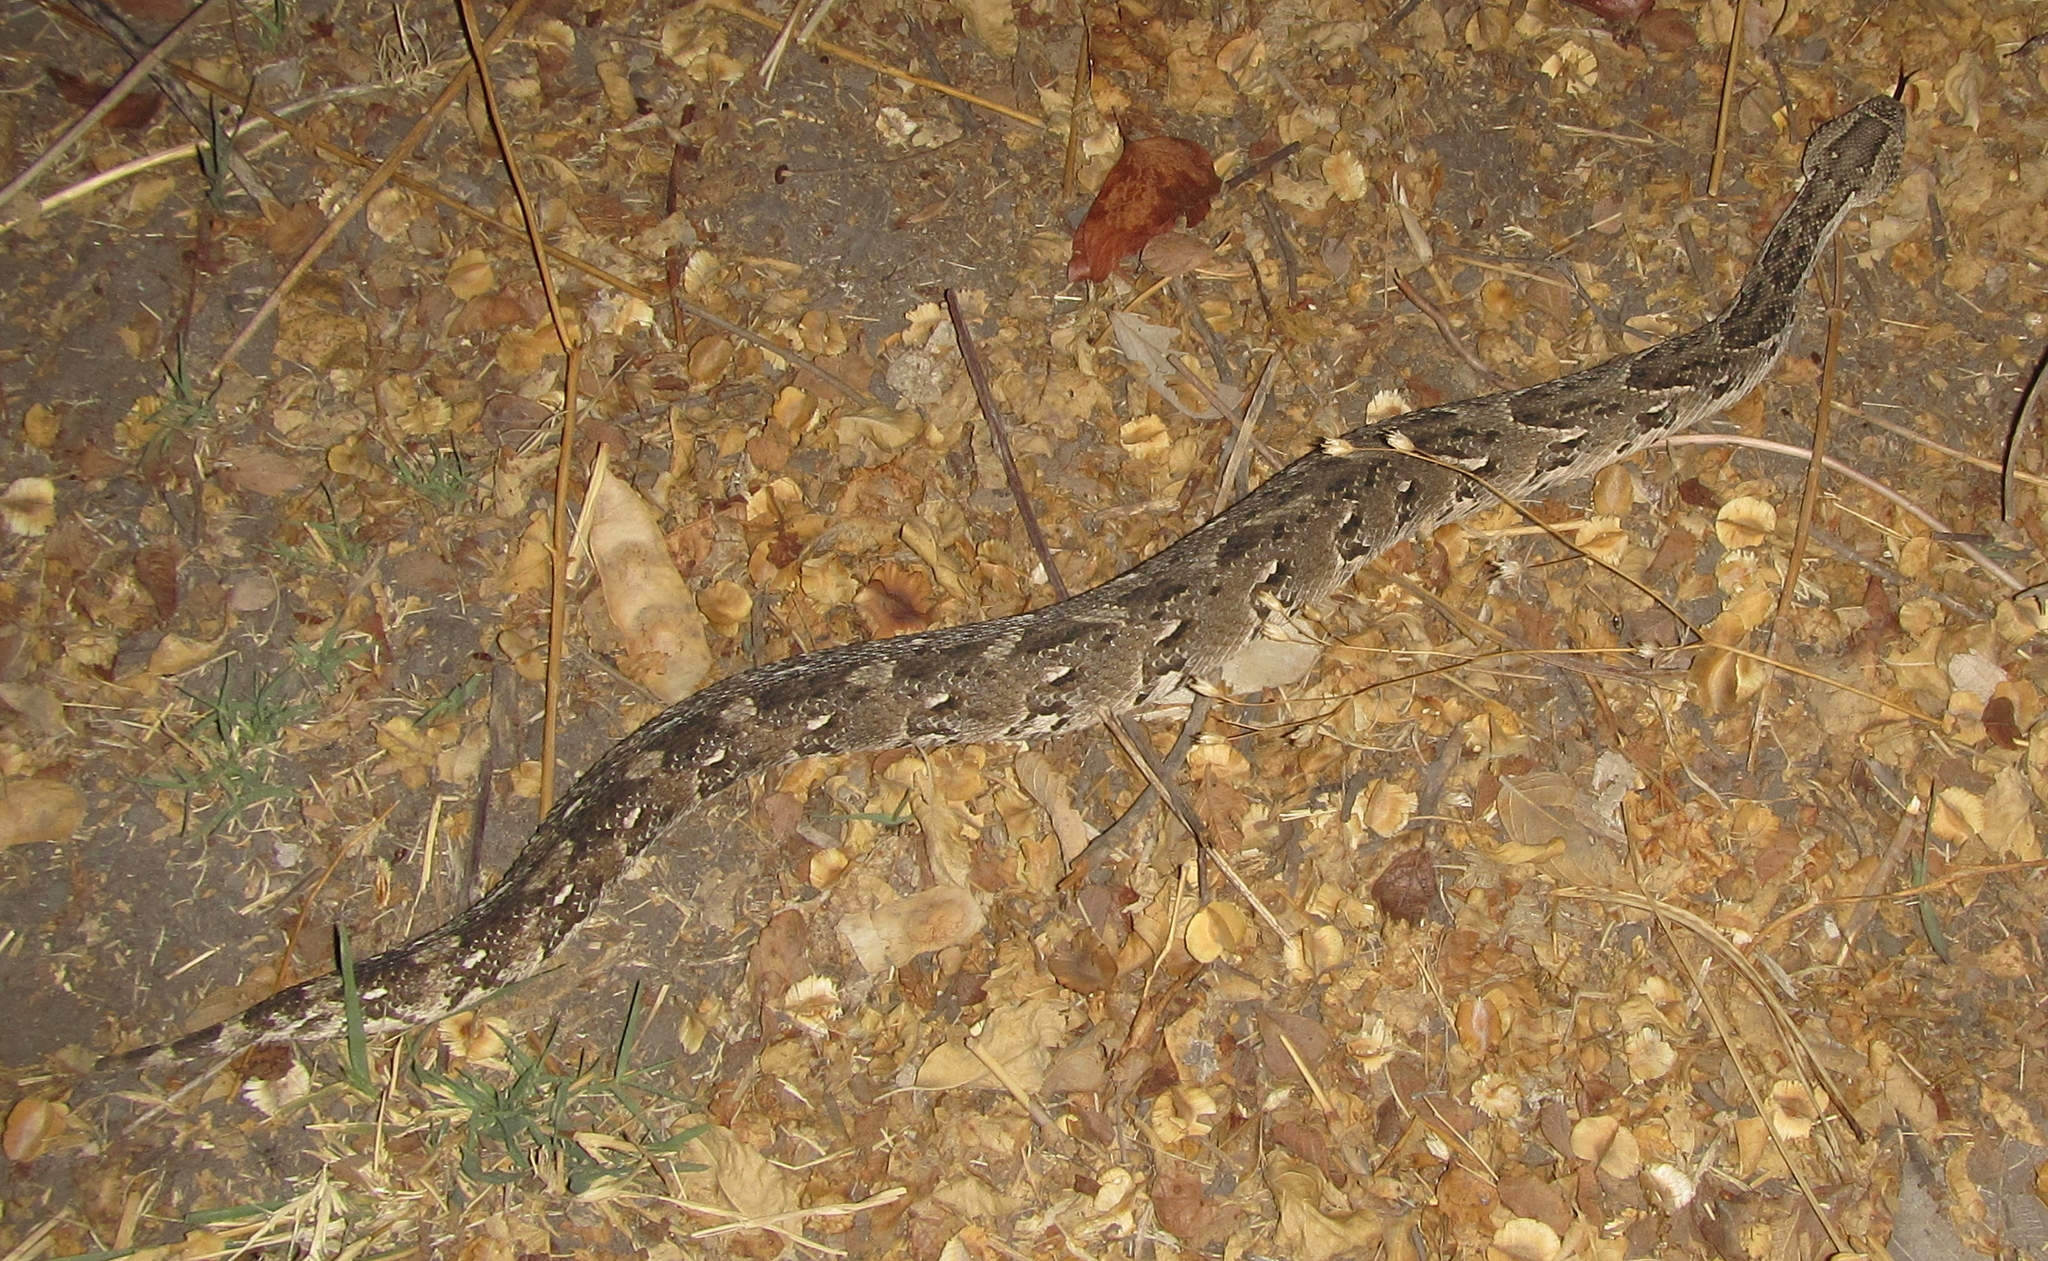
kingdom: Animalia
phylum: Chordata
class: Squamata
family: Viperidae
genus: Bitis
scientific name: Bitis arietans
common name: Puff adder
